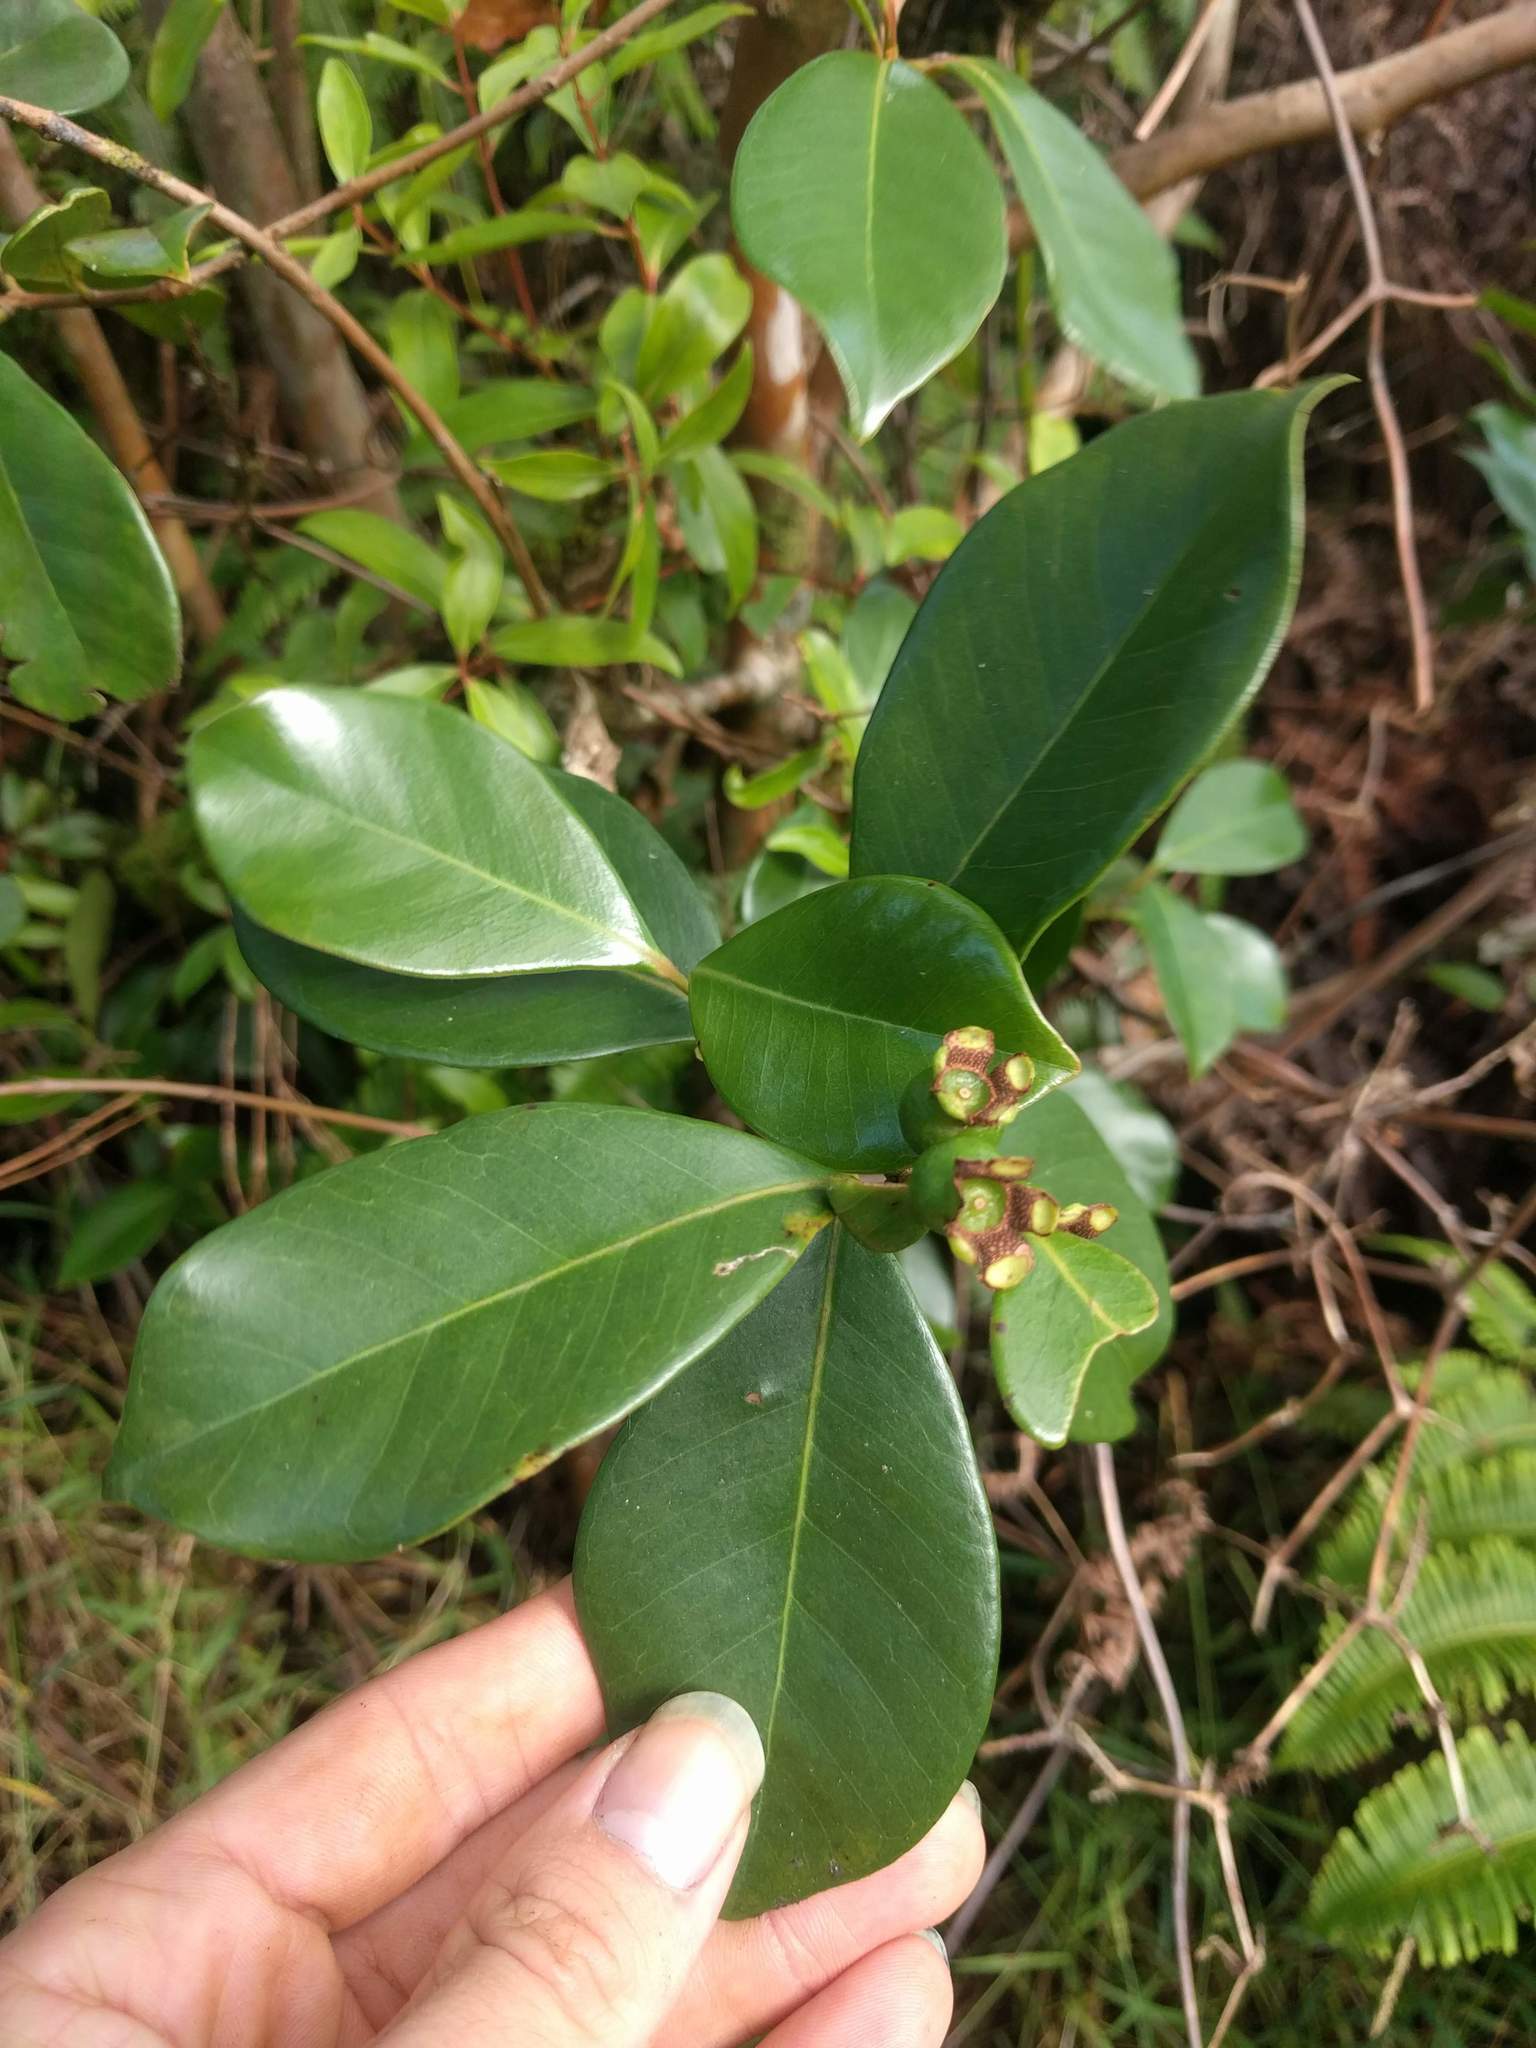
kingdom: Plantae
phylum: Tracheophyta
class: Magnoliopsida
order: Myrtales
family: Myrtaceae
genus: Psidium
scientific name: Psidium cattleianum
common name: Strawberry guava
